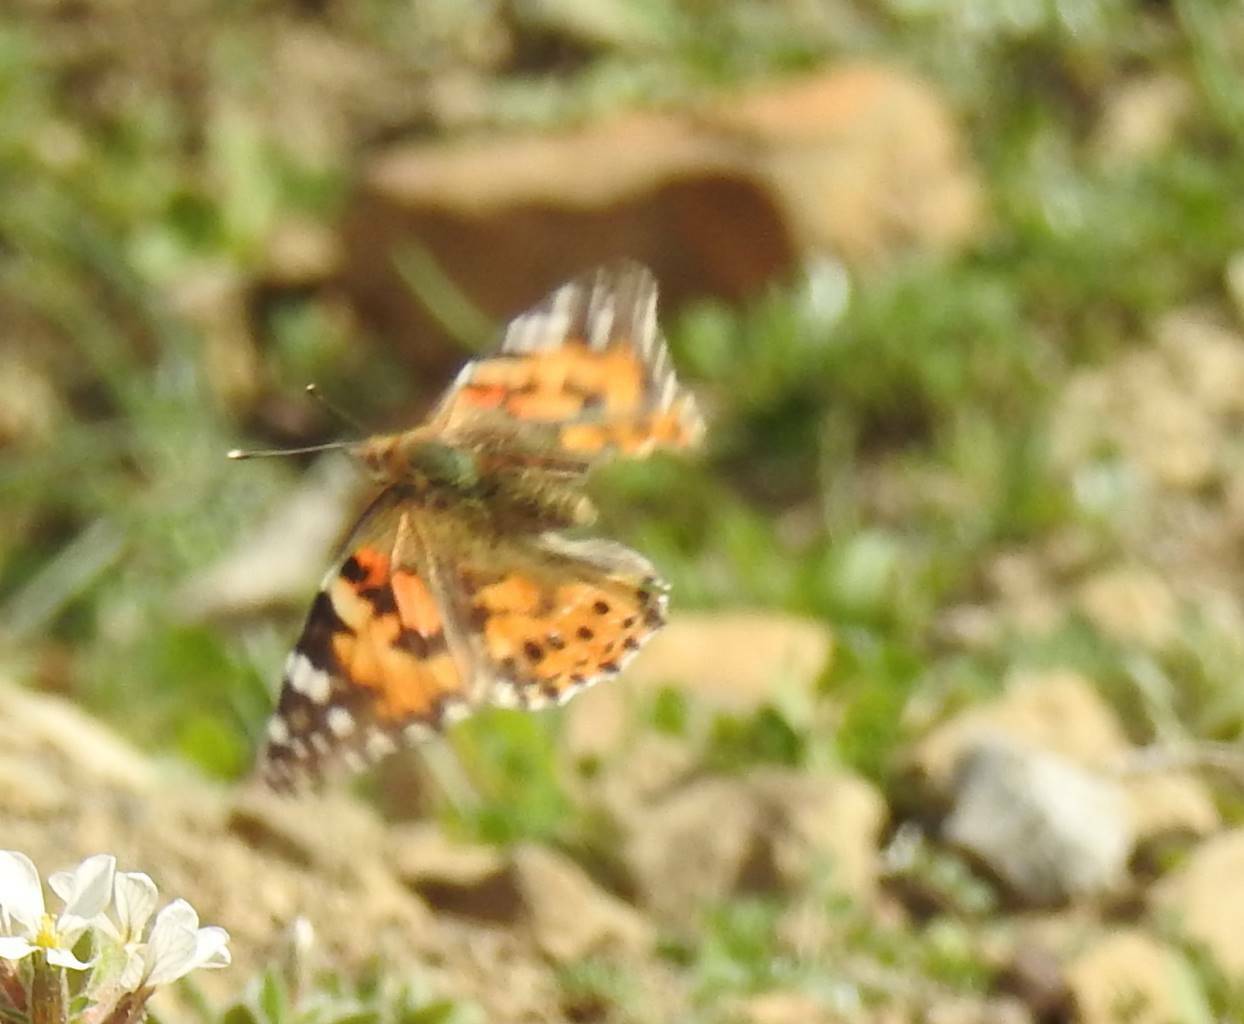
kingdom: Animalia
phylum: Arthropoda
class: Insecta
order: Lepidoptera
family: Nymphalidae
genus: Vanessa
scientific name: Vanessa cardui
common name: Painted lady
